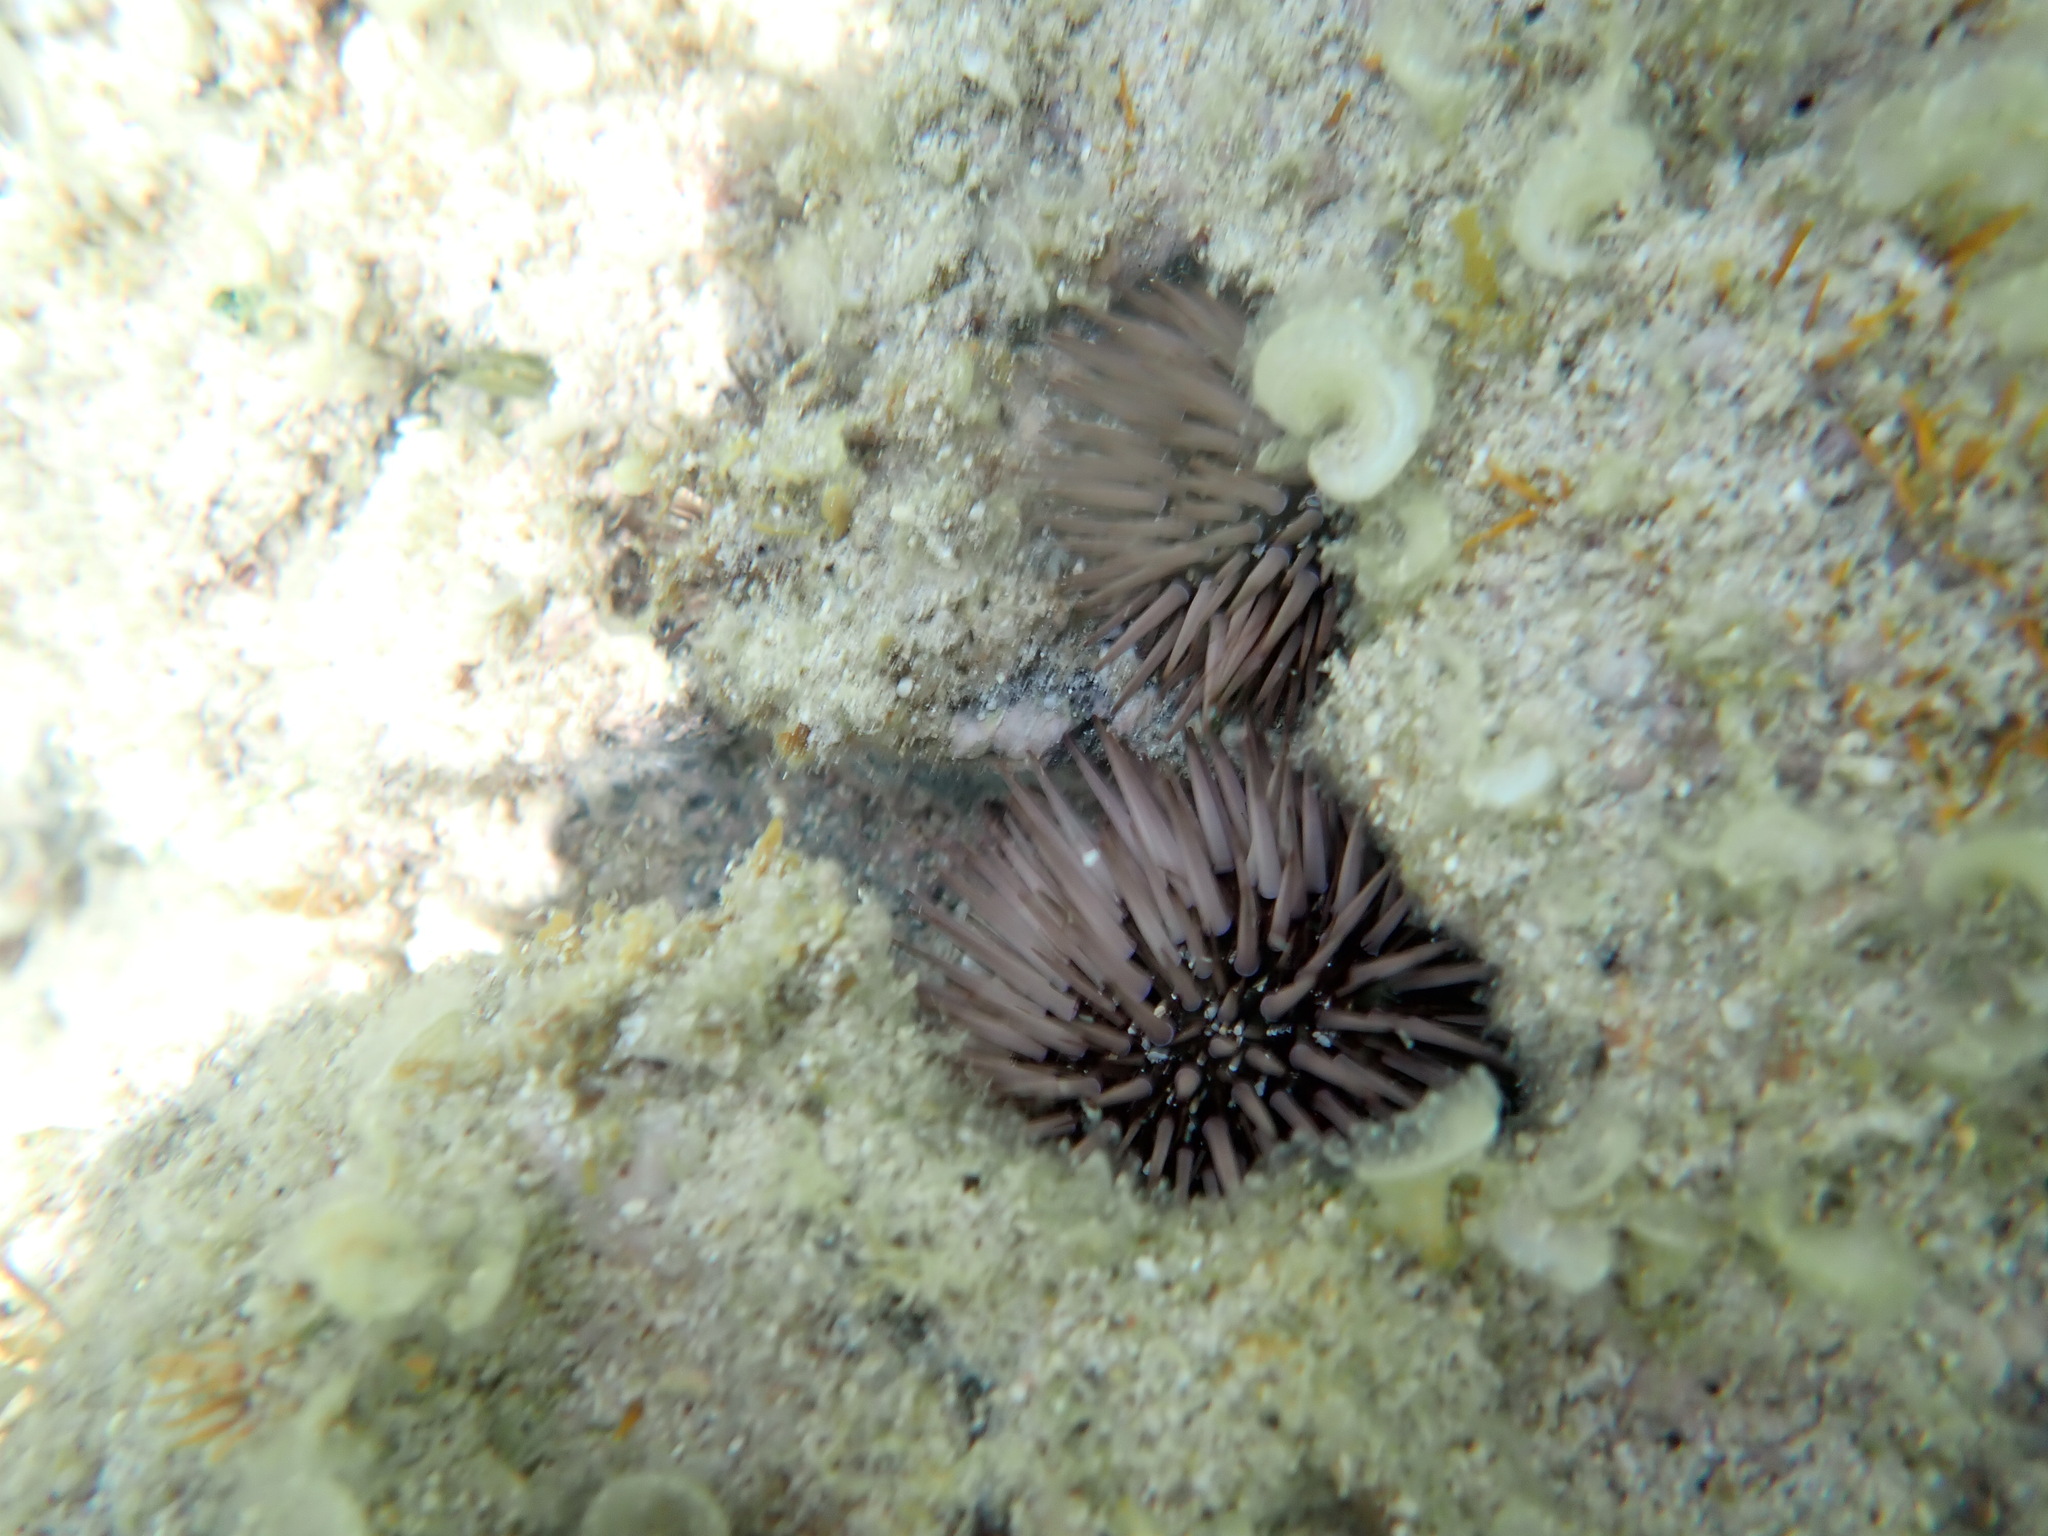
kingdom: Animalia
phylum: Echinodermata
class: Echinoidea
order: Camarodonta
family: Echinometridae
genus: Echinometra
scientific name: Echinometra mathaei
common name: Rock-boring urchin
